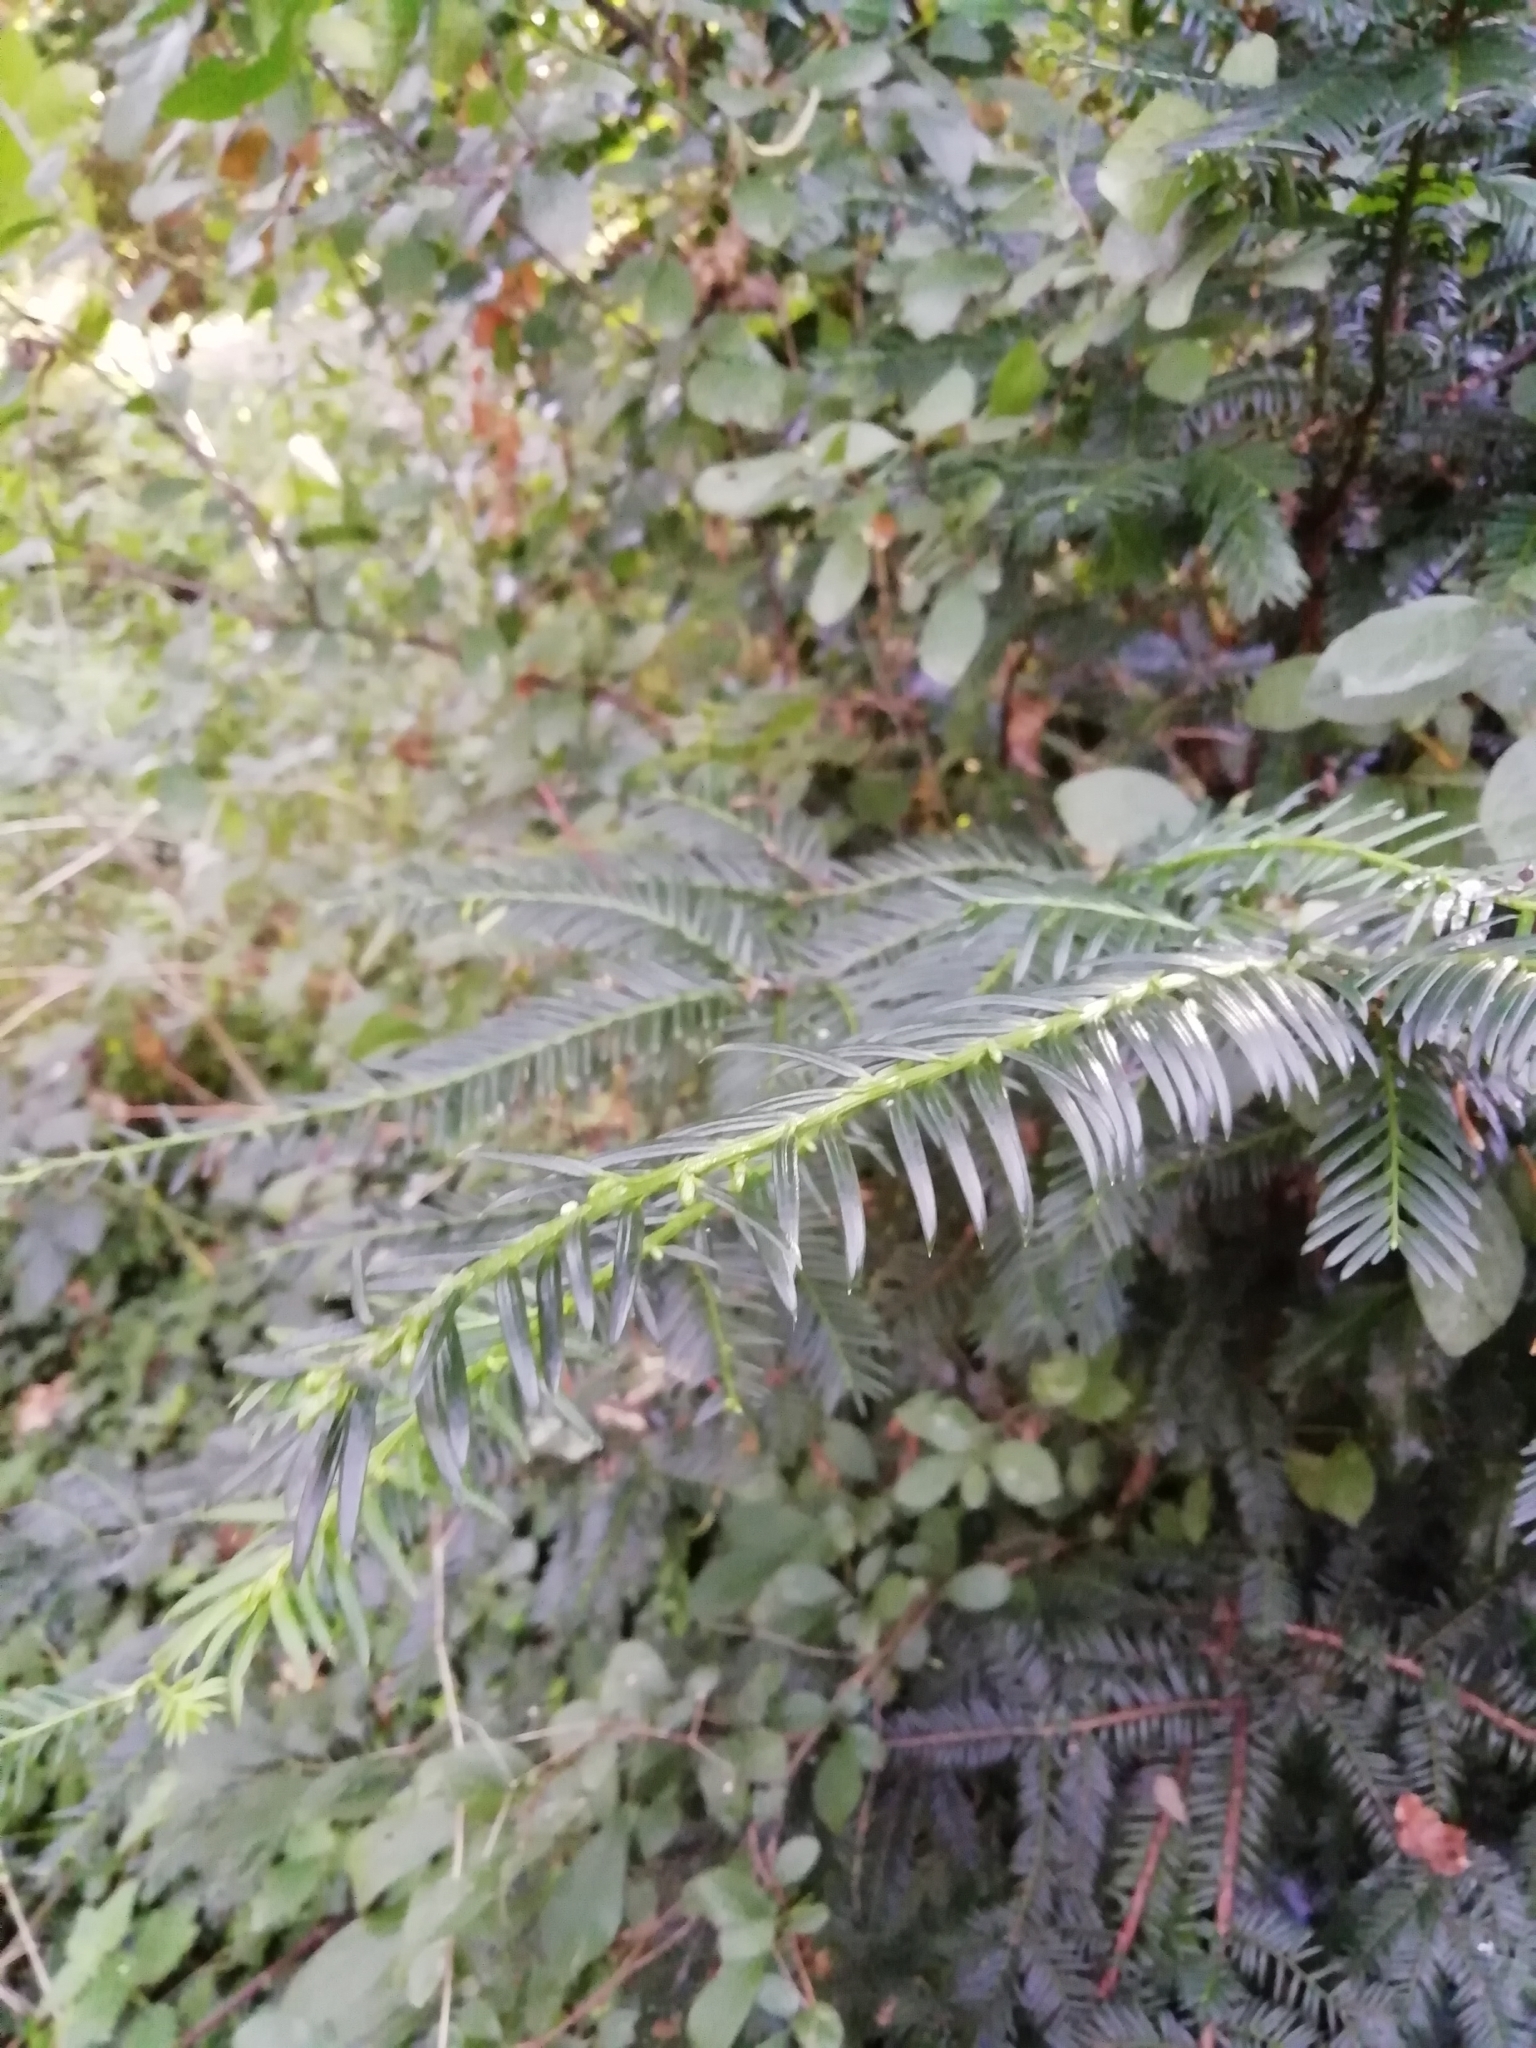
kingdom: Plantae
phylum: Tracheophyta
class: Pinopsida
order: Pinales
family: Taxaceae
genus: Taxus
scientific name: Taxus baccata
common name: Yew
